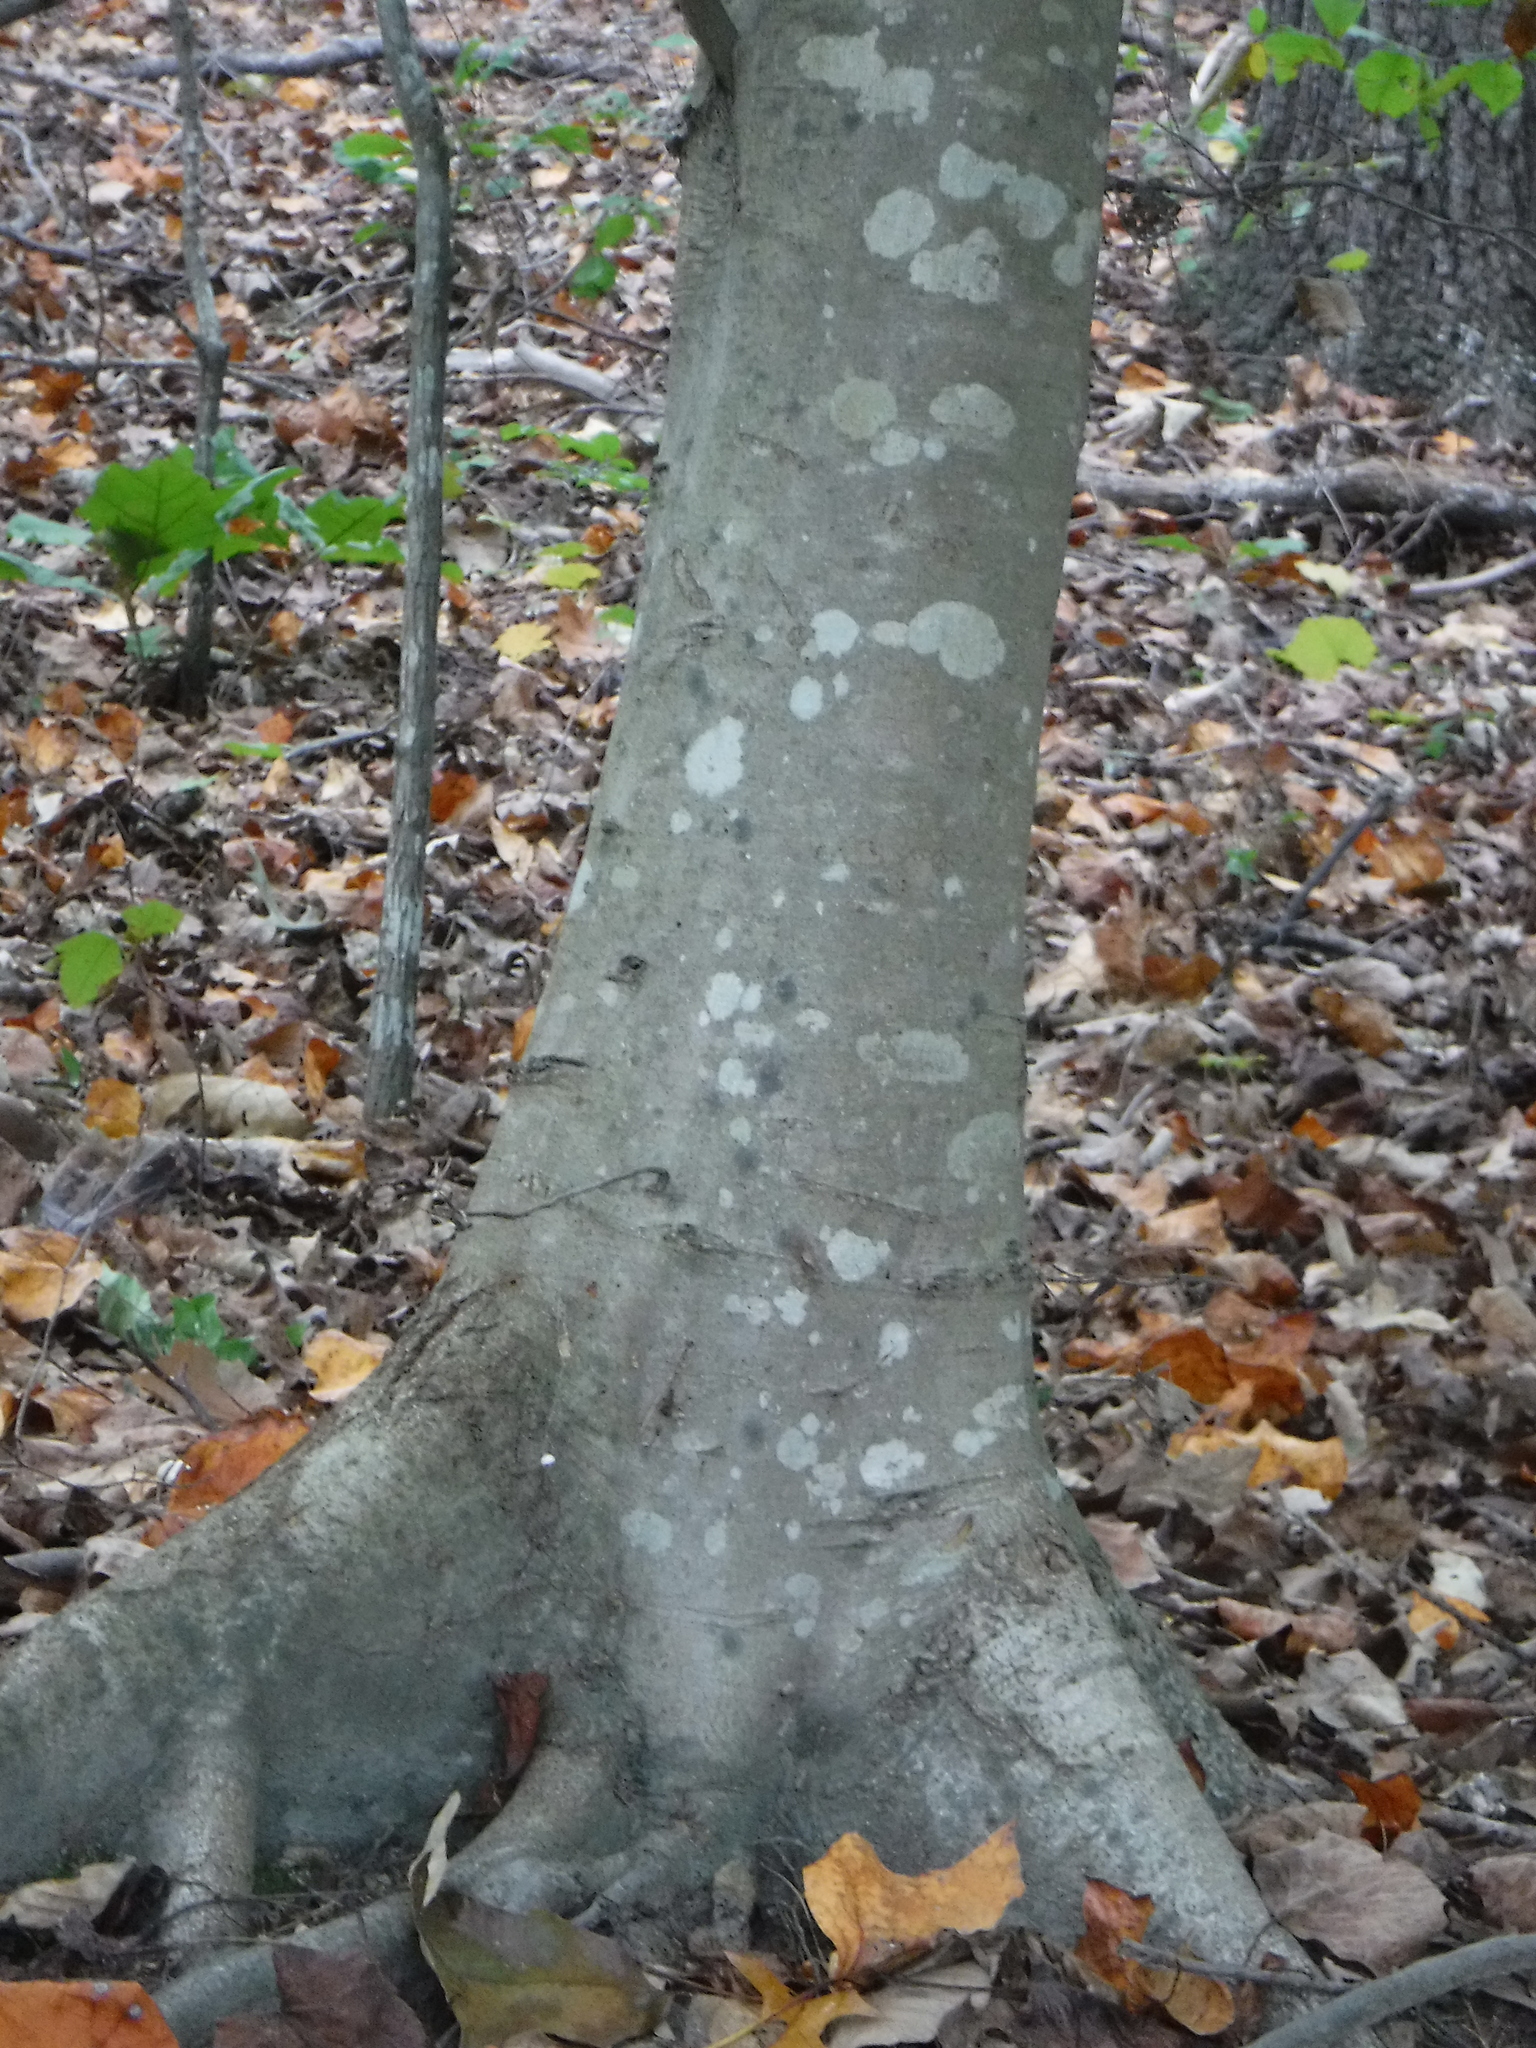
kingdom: Plantae
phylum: Tracheophyta
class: Magnoliopsida
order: Fagales
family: Fagaceae
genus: Fagus
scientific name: Fagus grandifolia
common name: American beech
